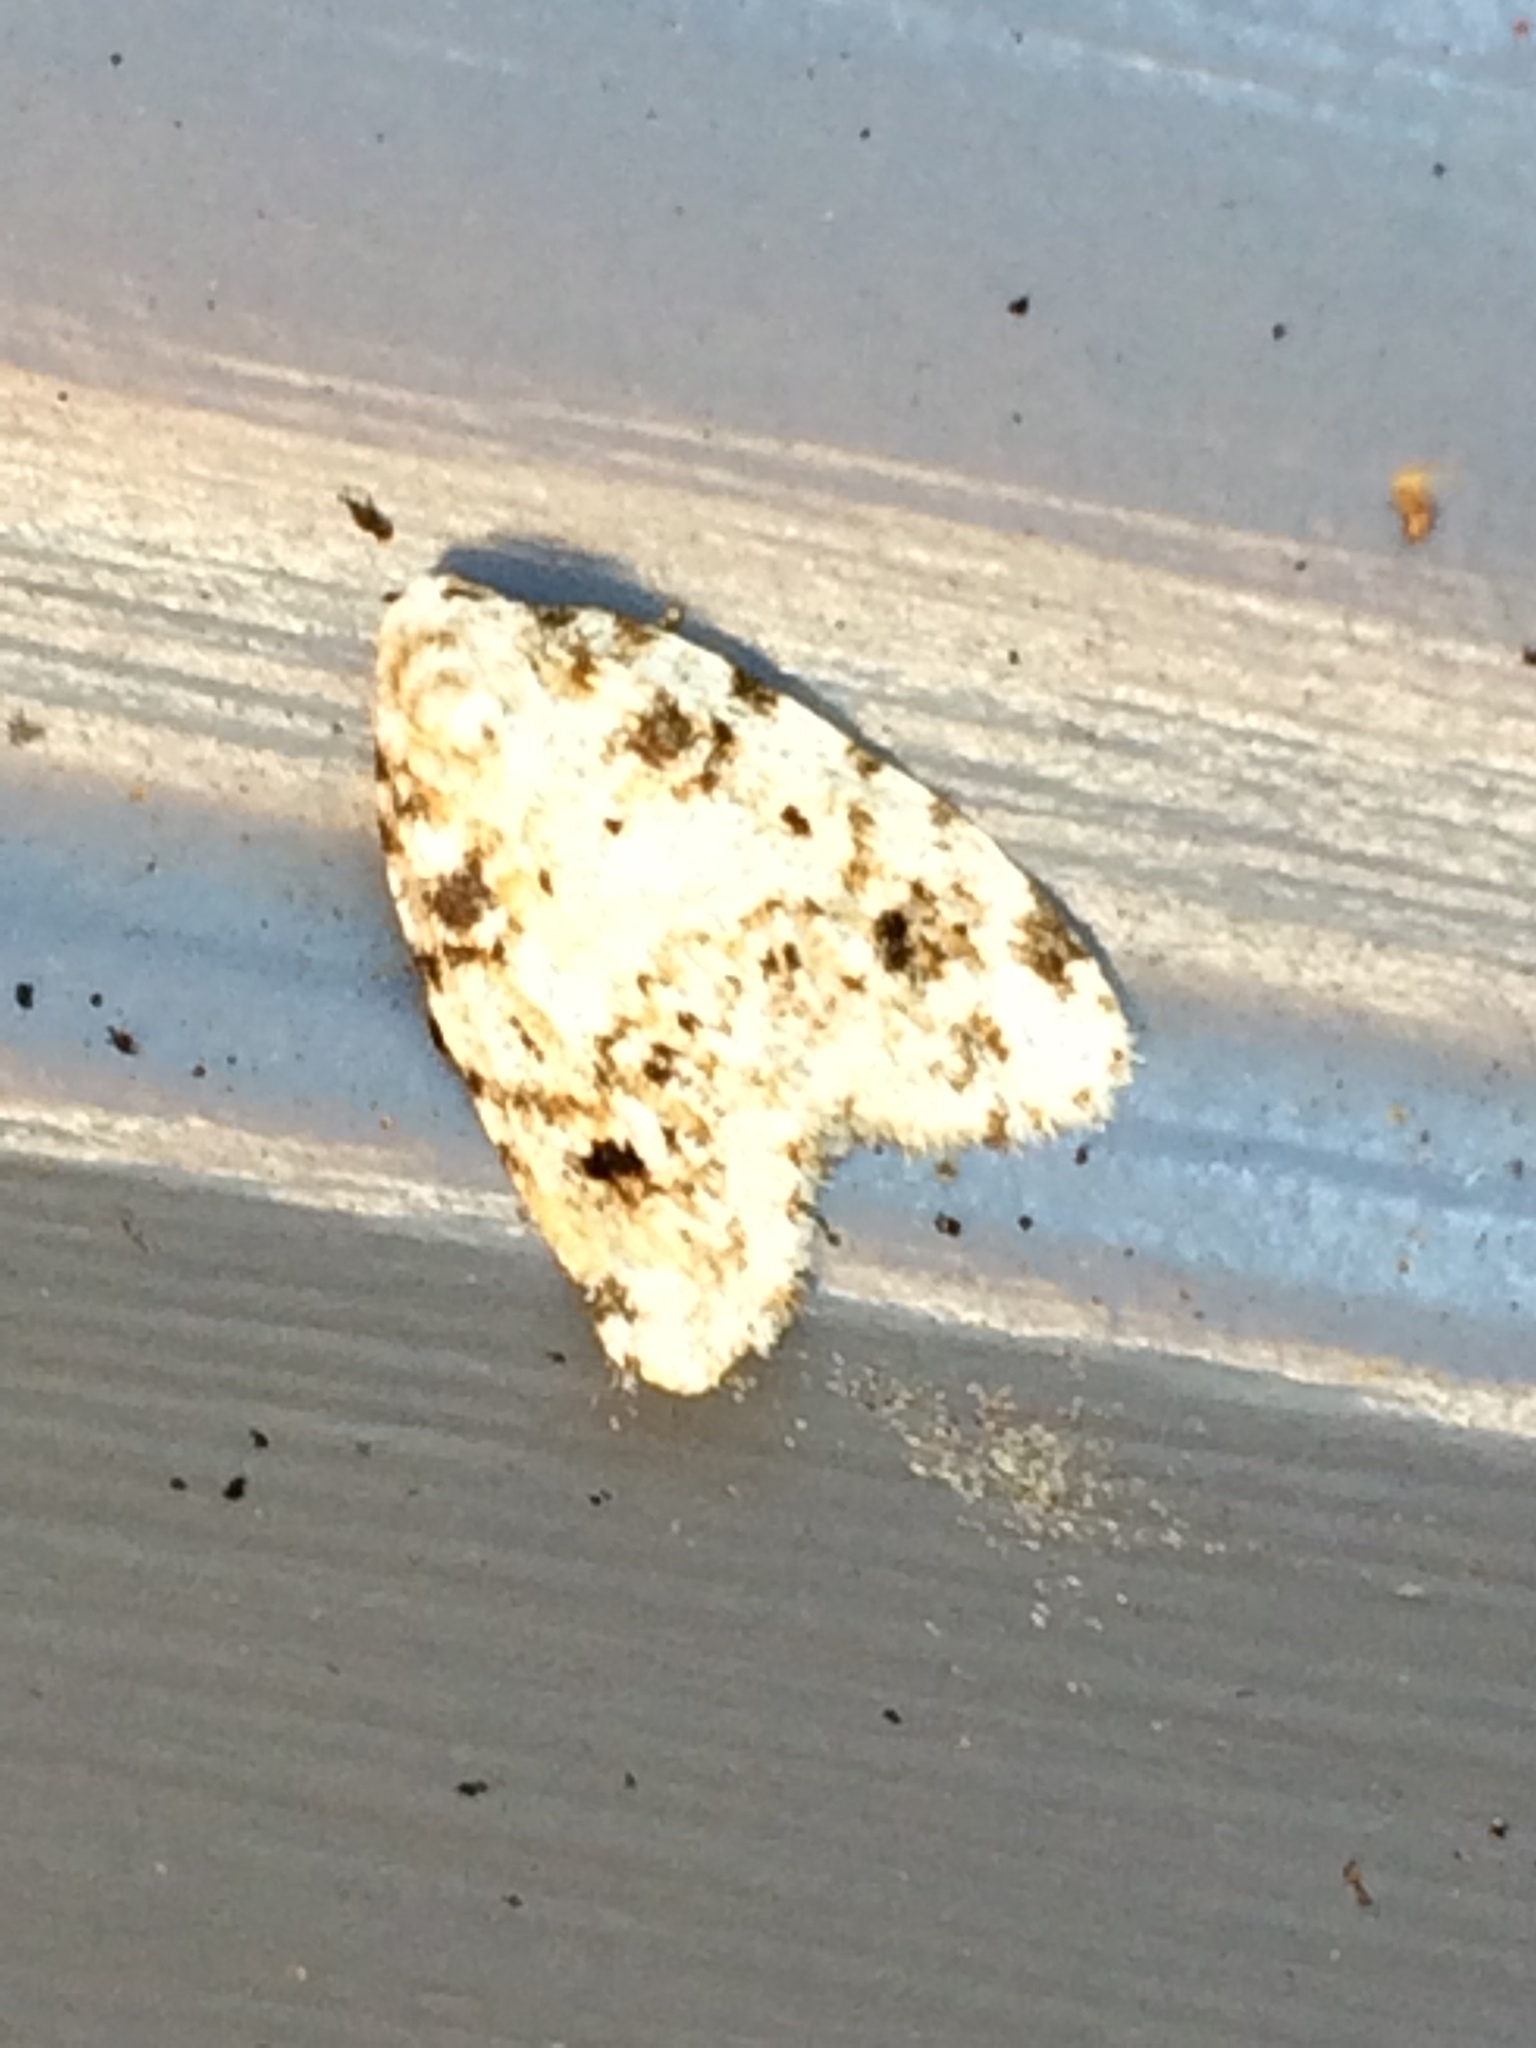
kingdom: Animalia
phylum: Arthropoda
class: Insecta
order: Lepidoptera
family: Erebidae
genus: Clemensia
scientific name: Clemensia ochreata
